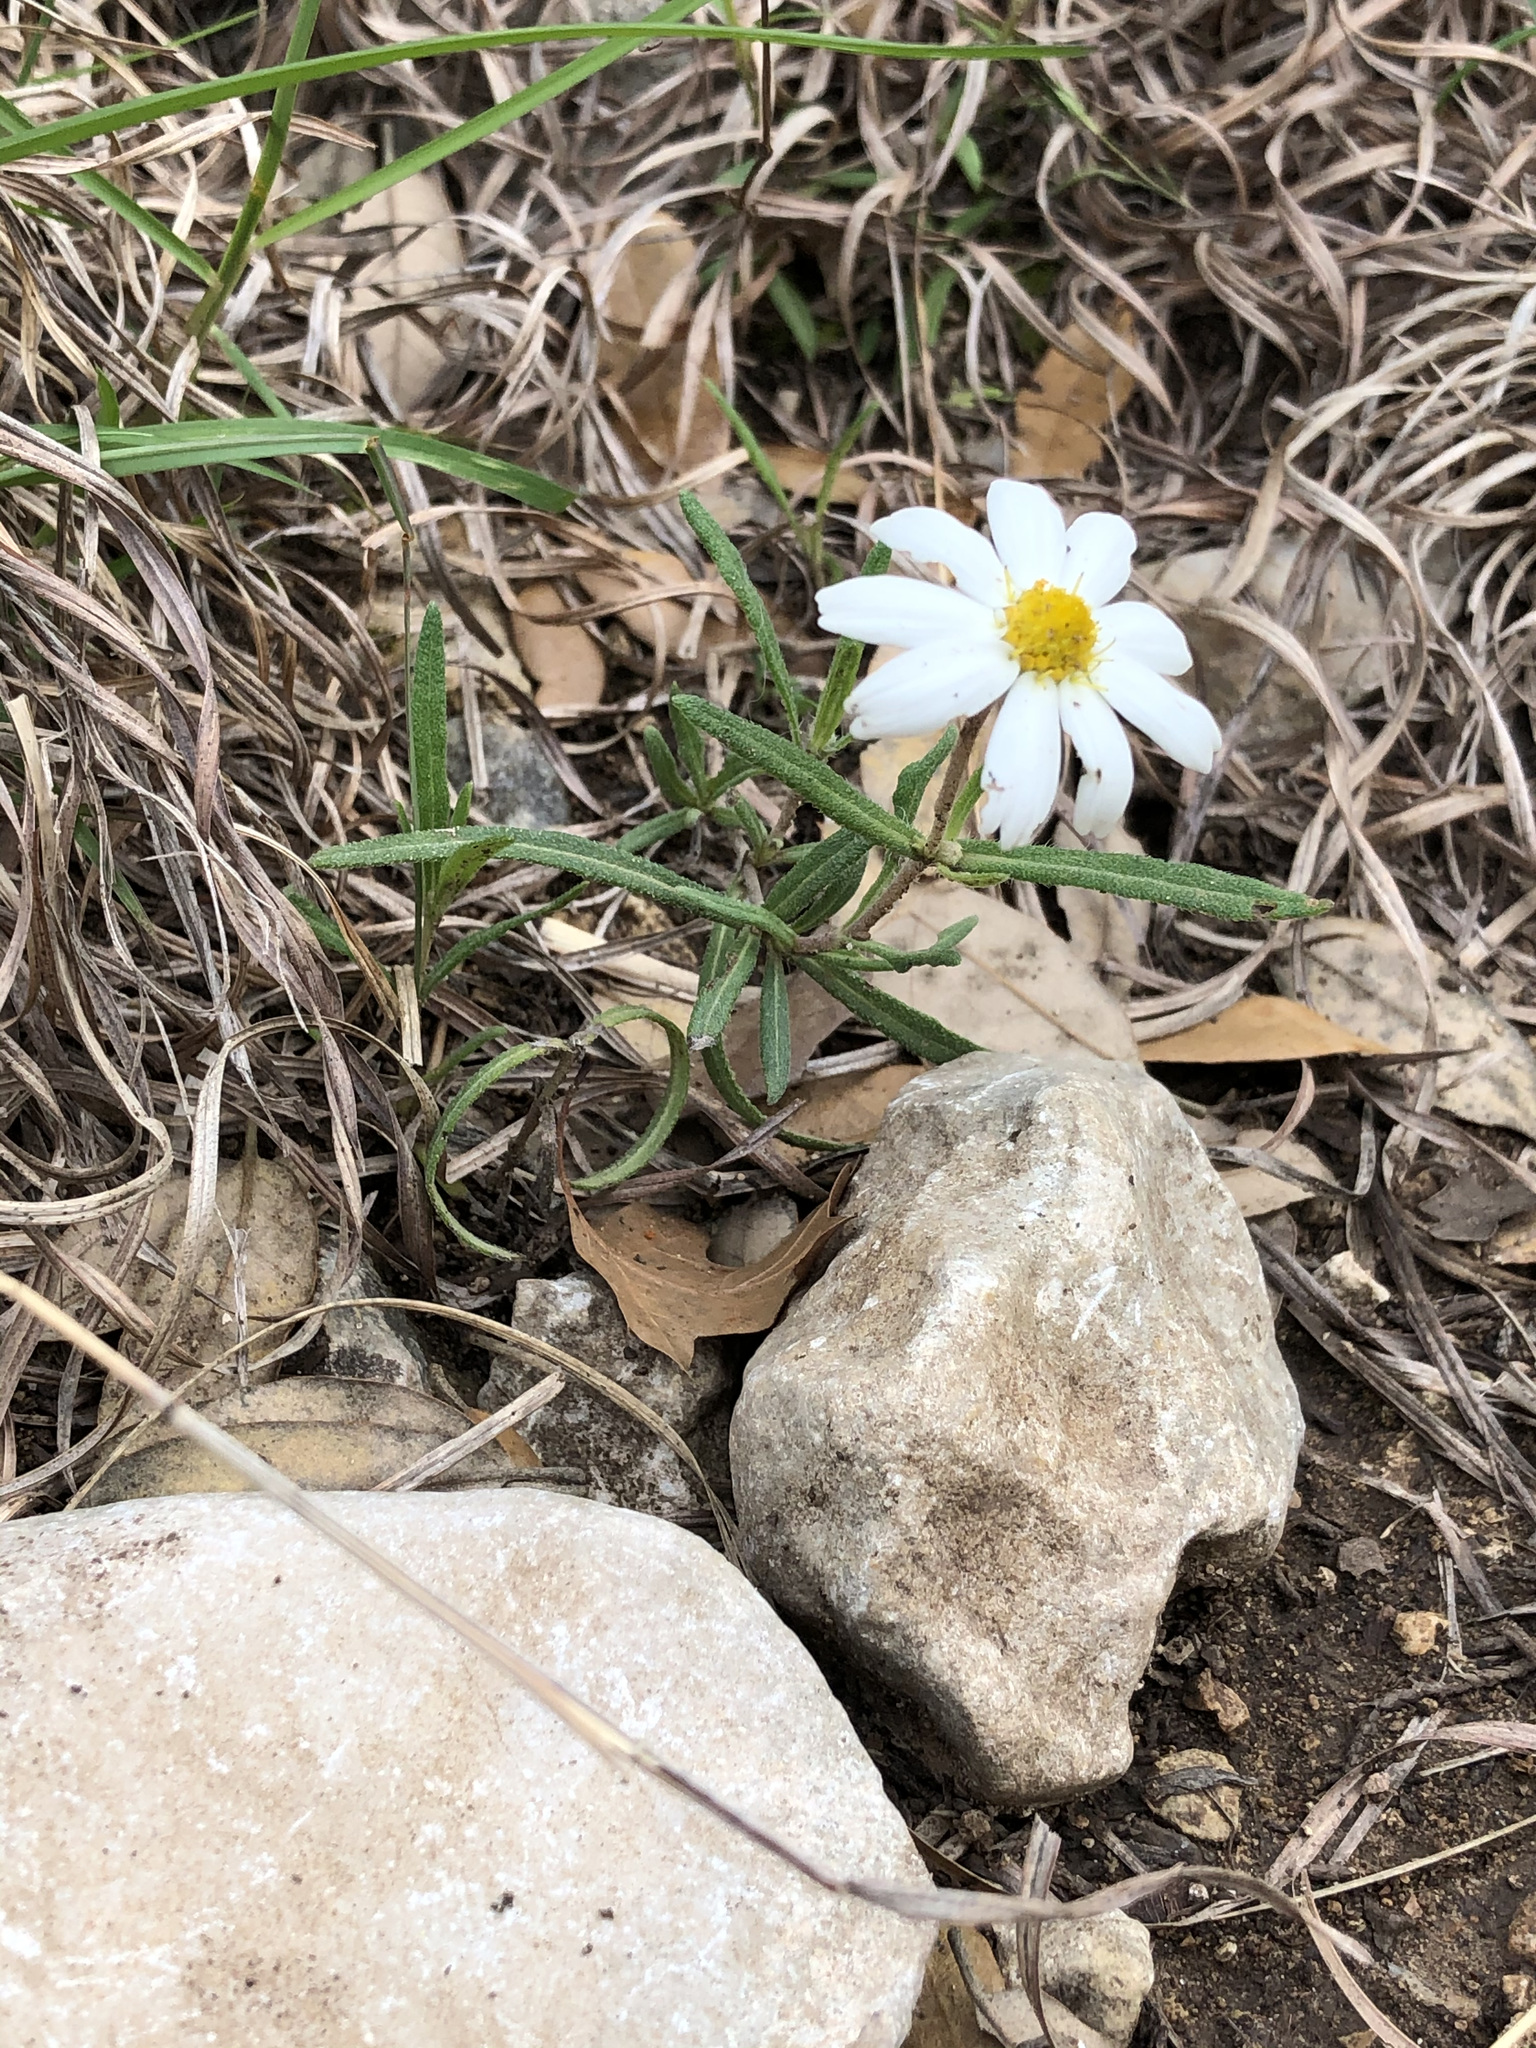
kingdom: Plantae
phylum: Tracheophyta
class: Magnoliopsida
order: Asterales
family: Asteraceae
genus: Melampodium
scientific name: Melampodium leucanthum
